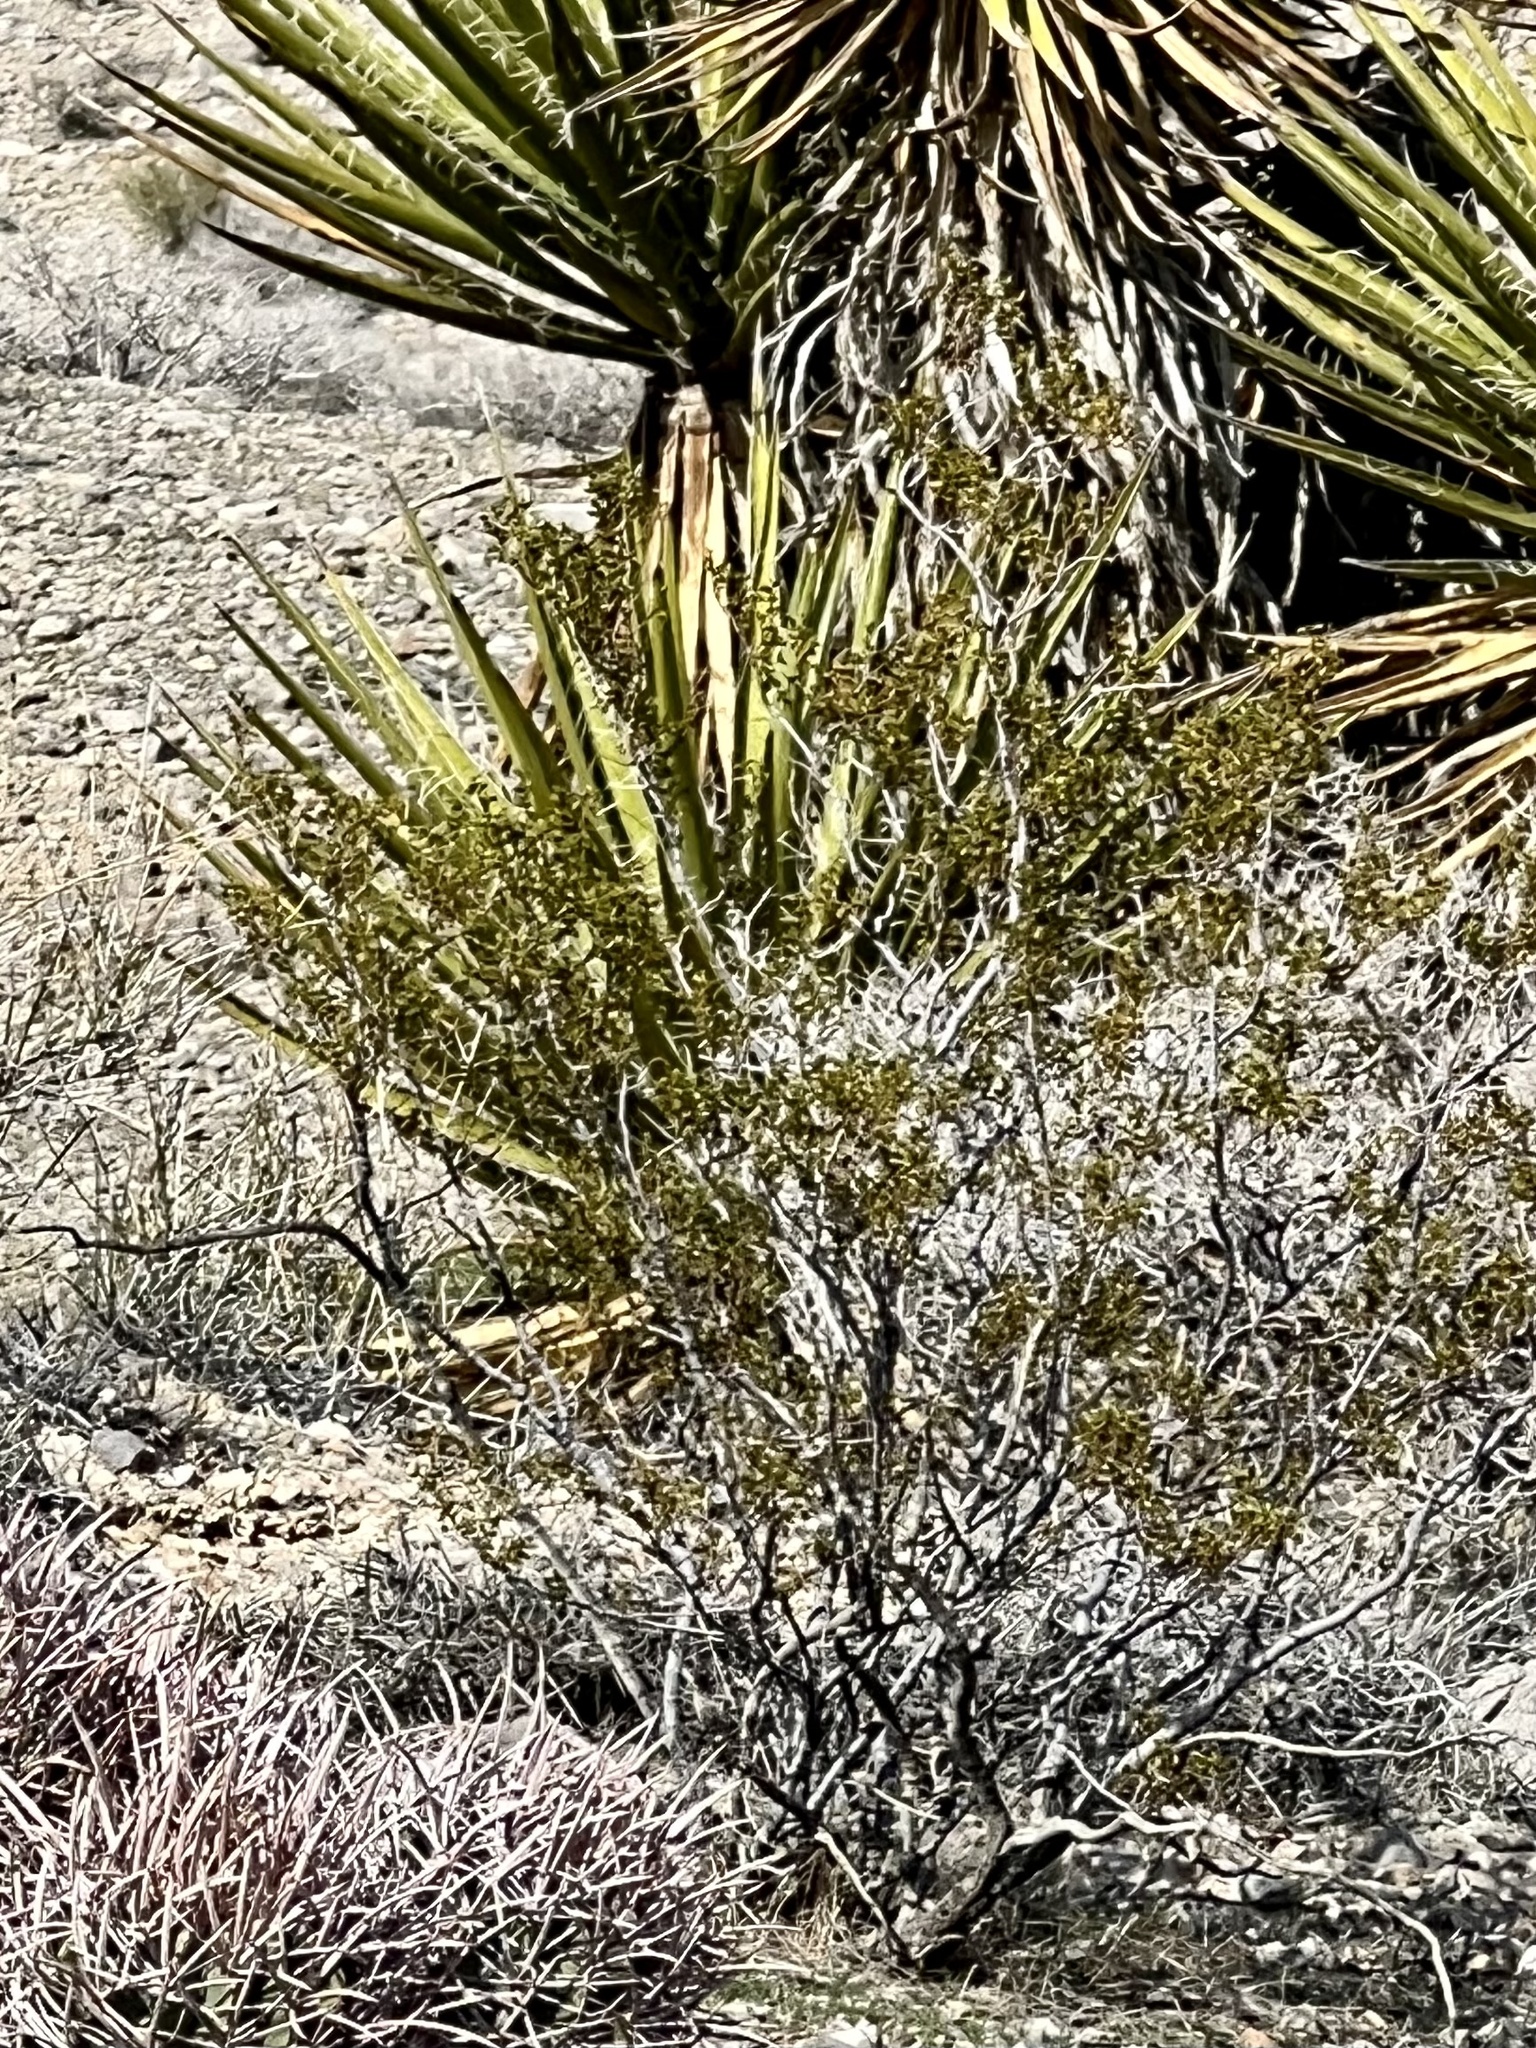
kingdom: Plantae
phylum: Tracheophyta
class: Magnoliopsida
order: Zygophyllales
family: Zygophyllaceae
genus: Larrea
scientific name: Larrea tridentata
